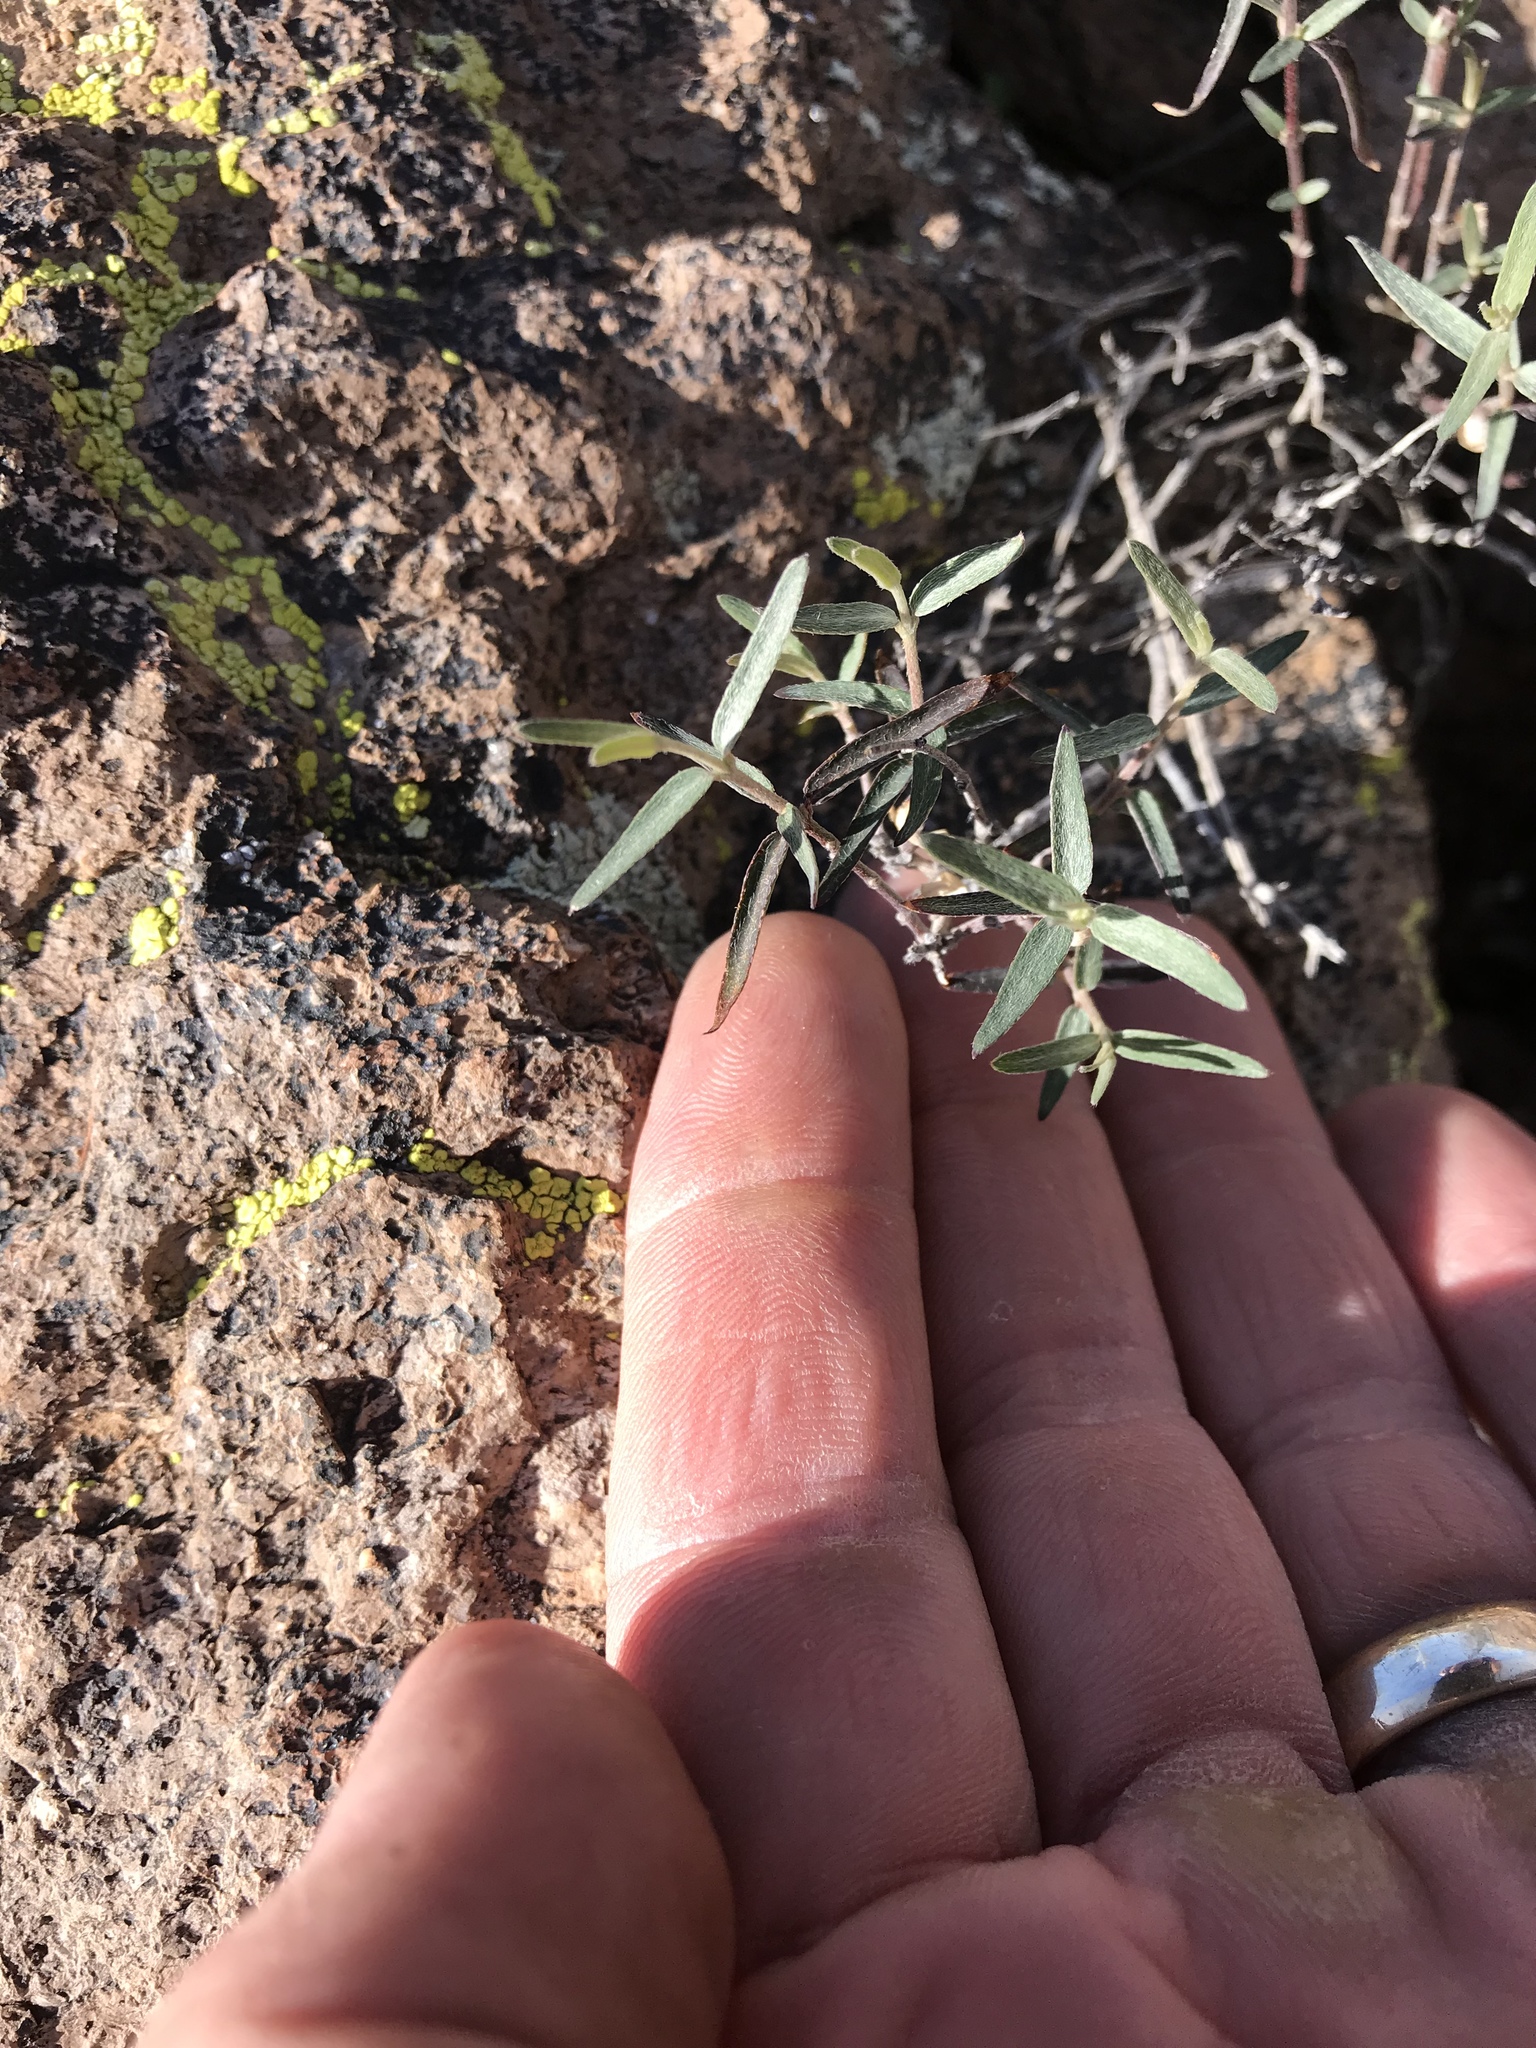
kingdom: Plantae
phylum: Tracheophyta
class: Magnoliopsida
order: Malpighiales
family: Malpighiaceae
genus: Cottsia
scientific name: Cottsia gracilis
